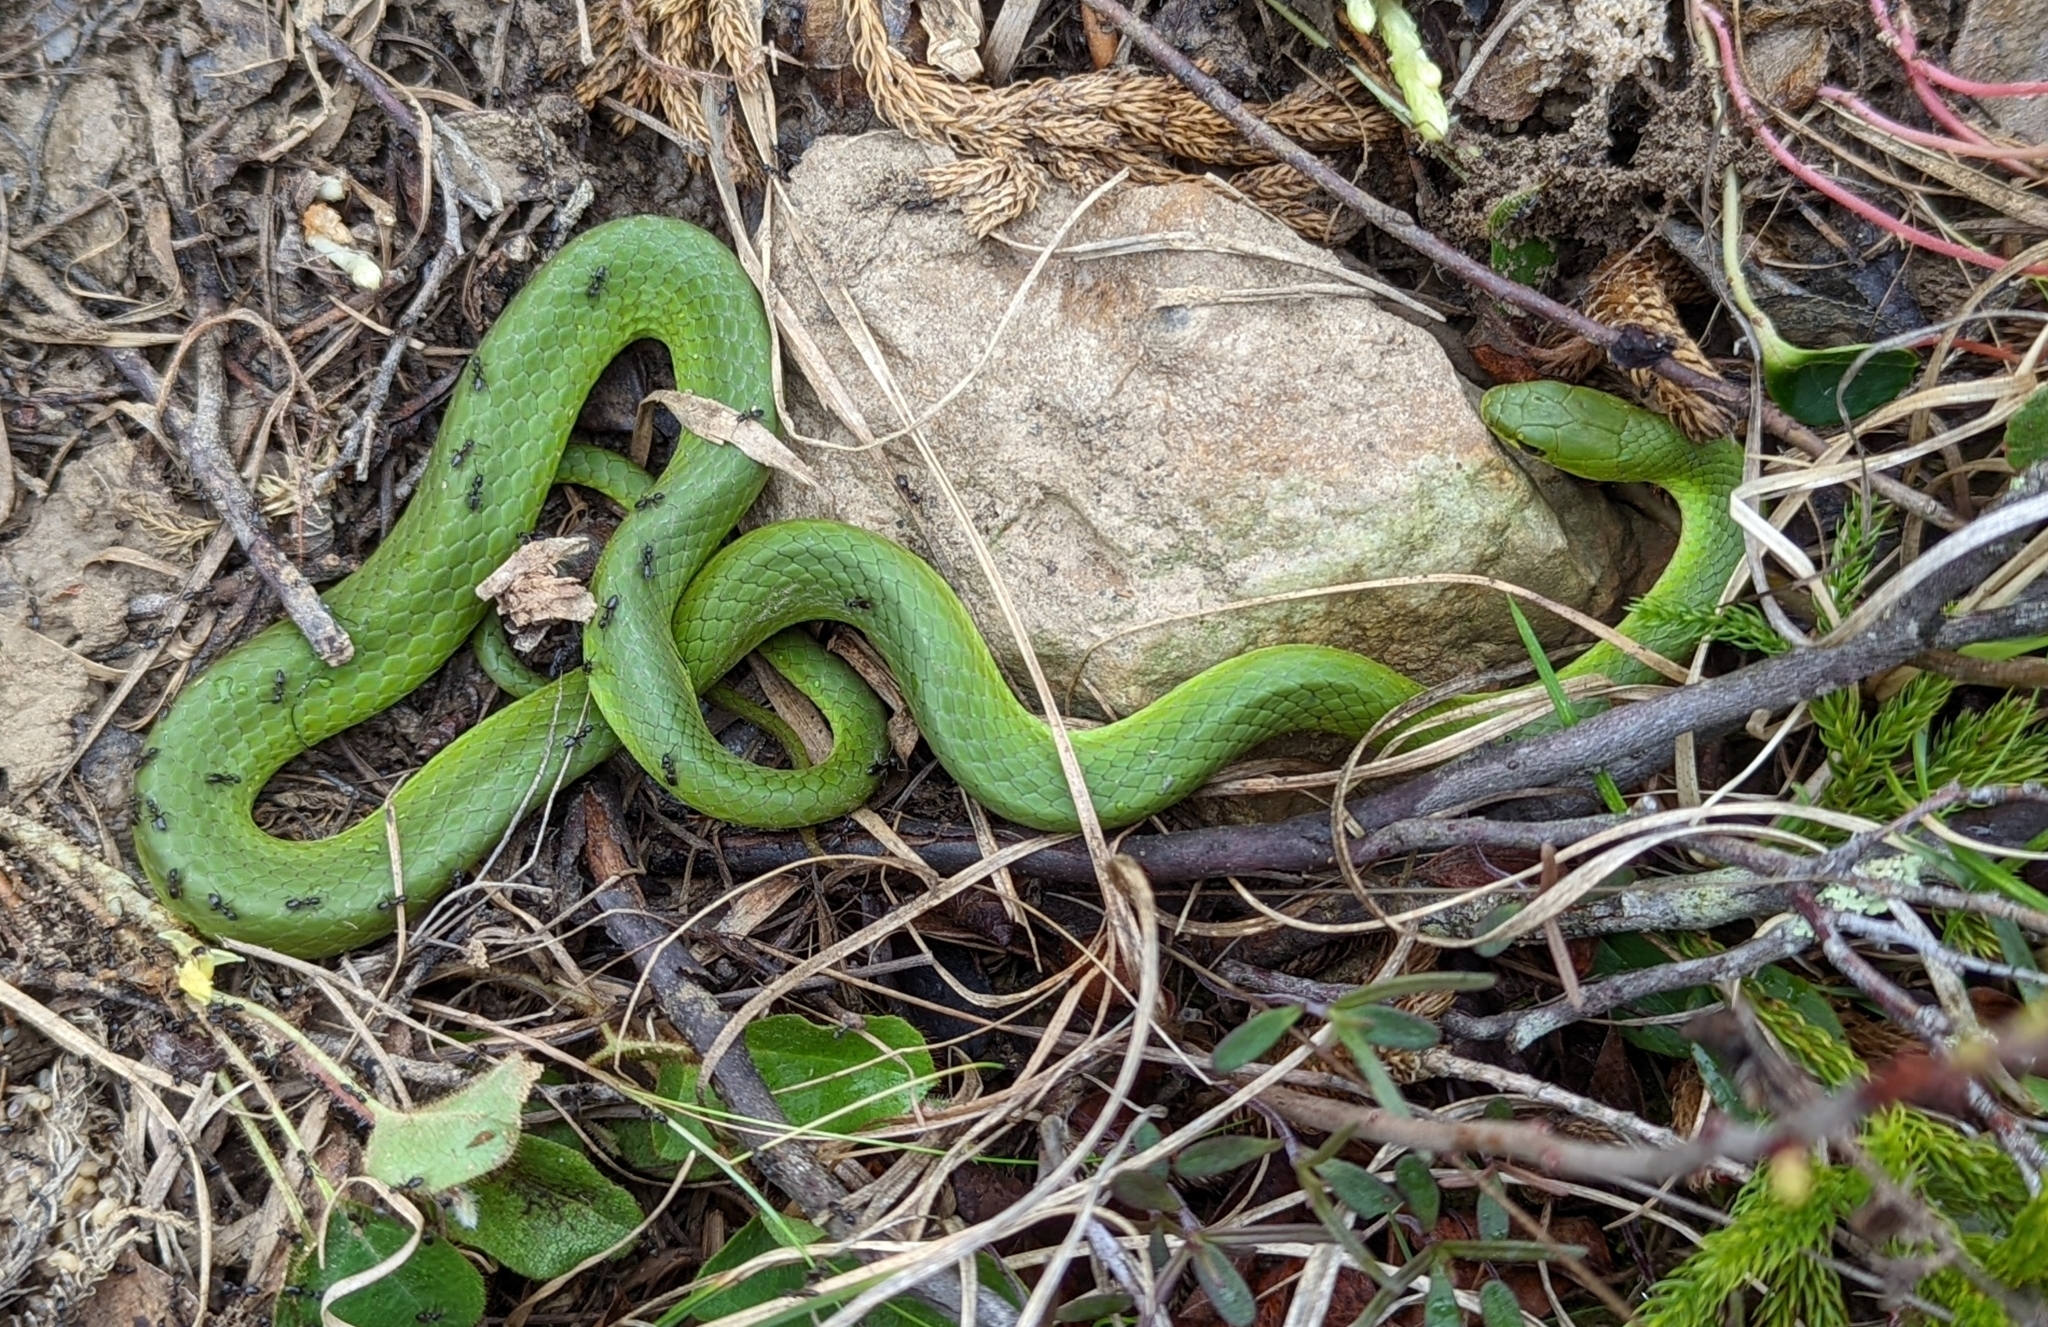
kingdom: Animalia
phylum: Chordata
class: Squamata
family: Colubridae
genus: Opheodrys
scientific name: Opheodrys vernalis
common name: Smooth green snake
